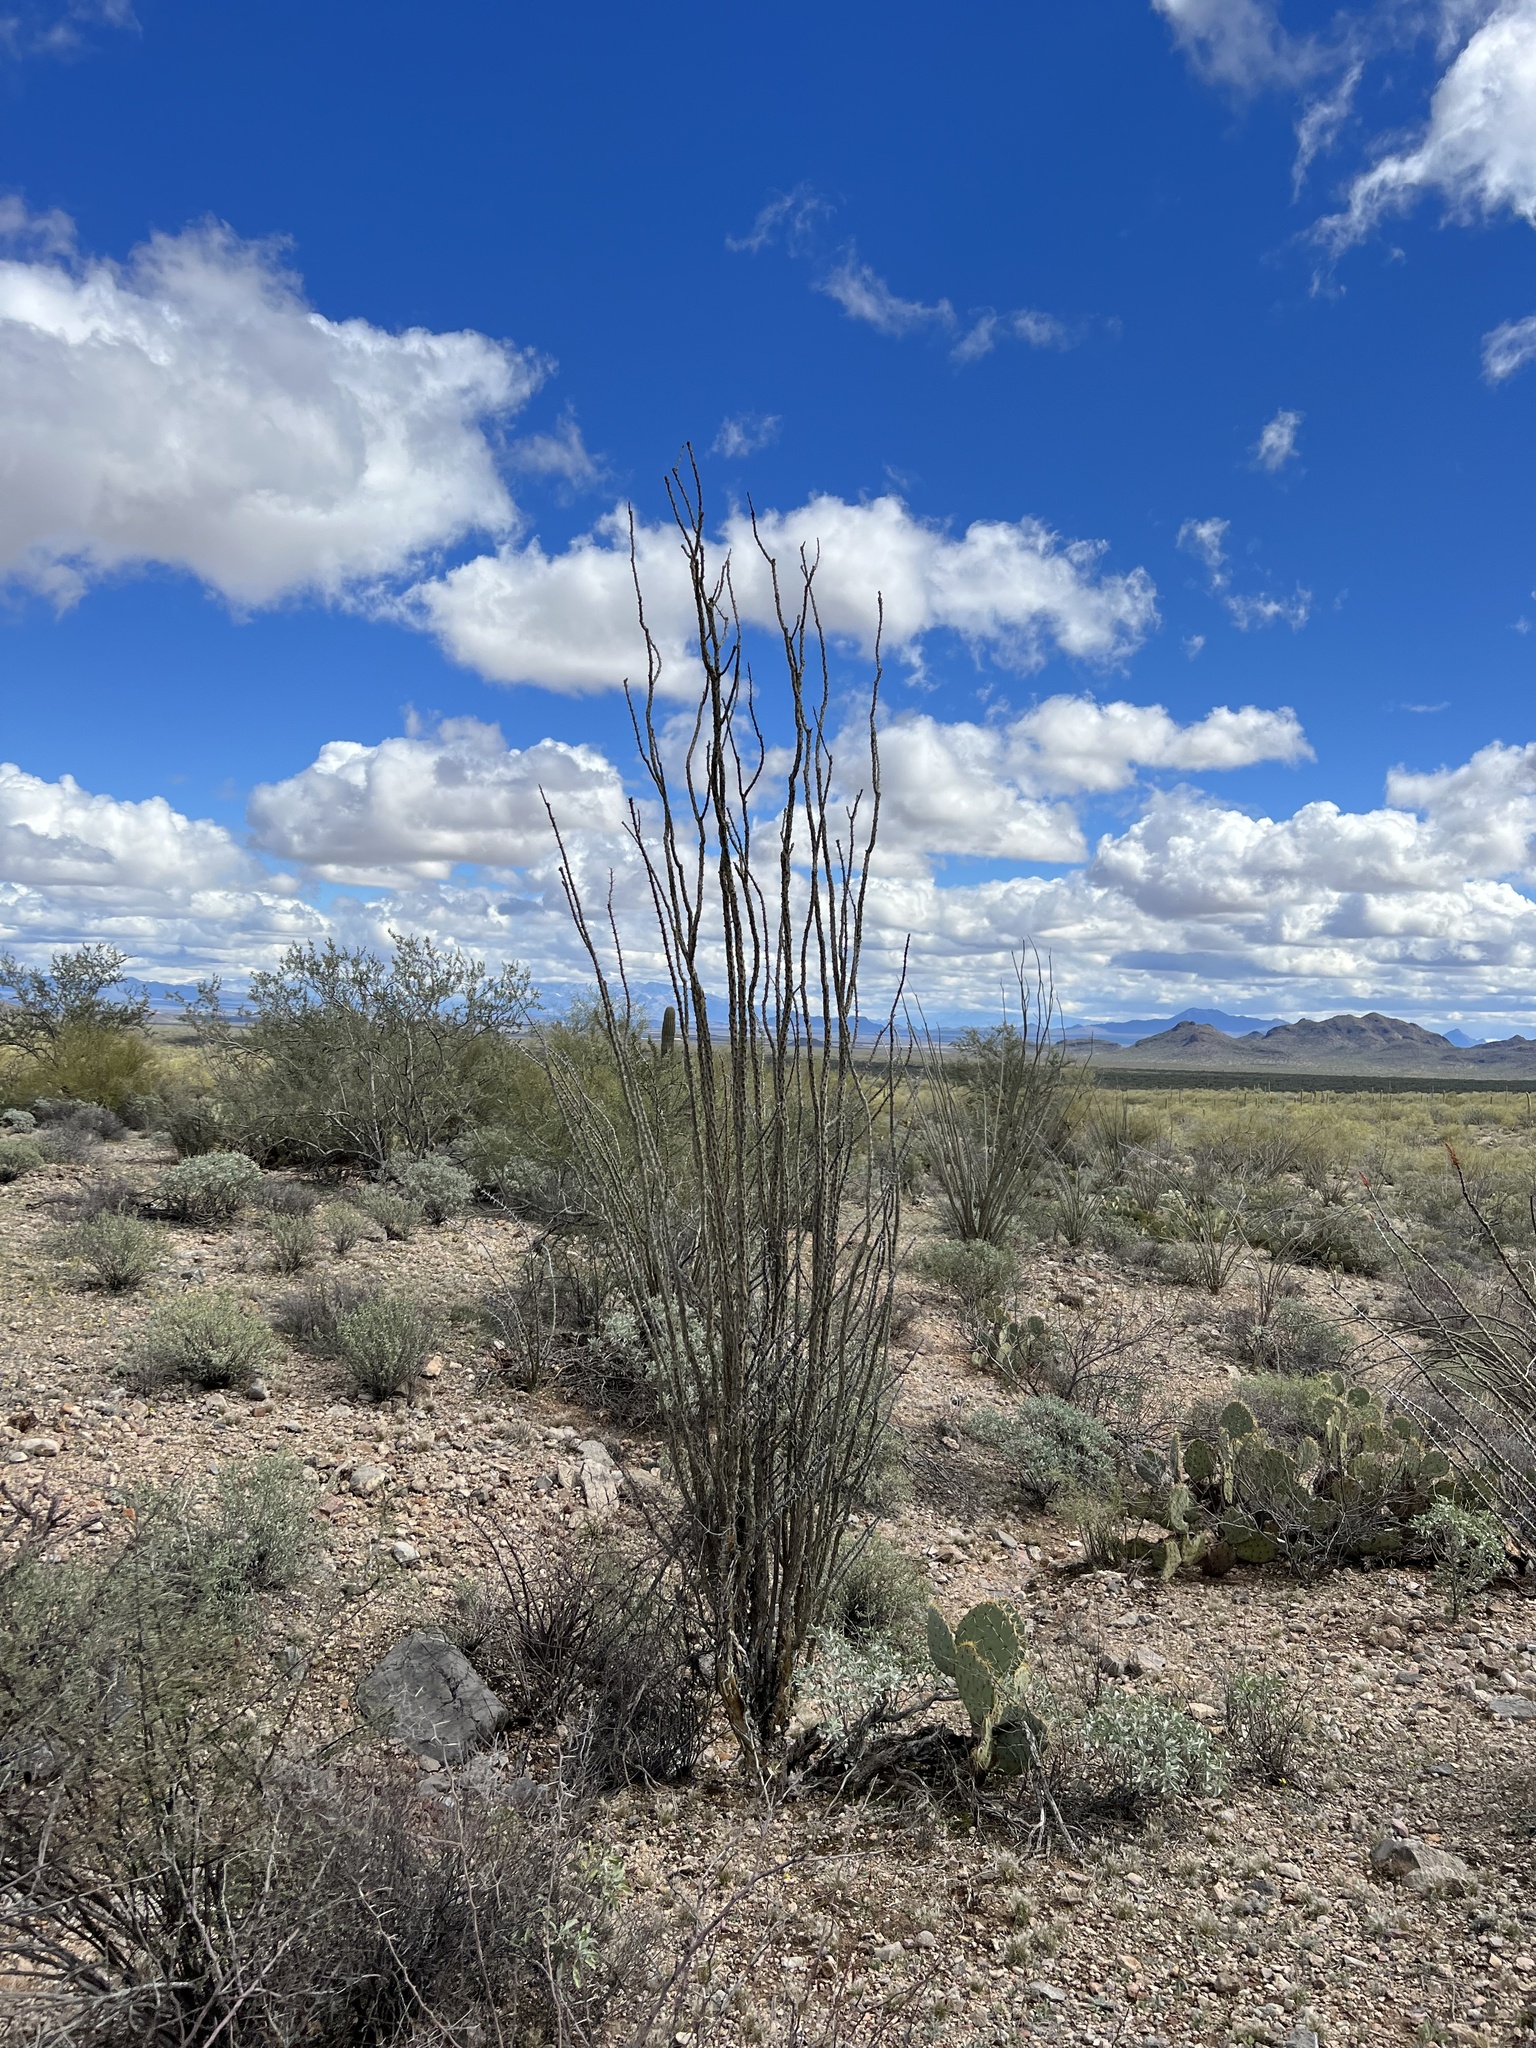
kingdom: Plantae
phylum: Tracheophyta
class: Magnoliopsida
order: Ericales
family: Fouquieriaceae
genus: Fouquieria
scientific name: Fouquieria splendens
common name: Vine-cactus
